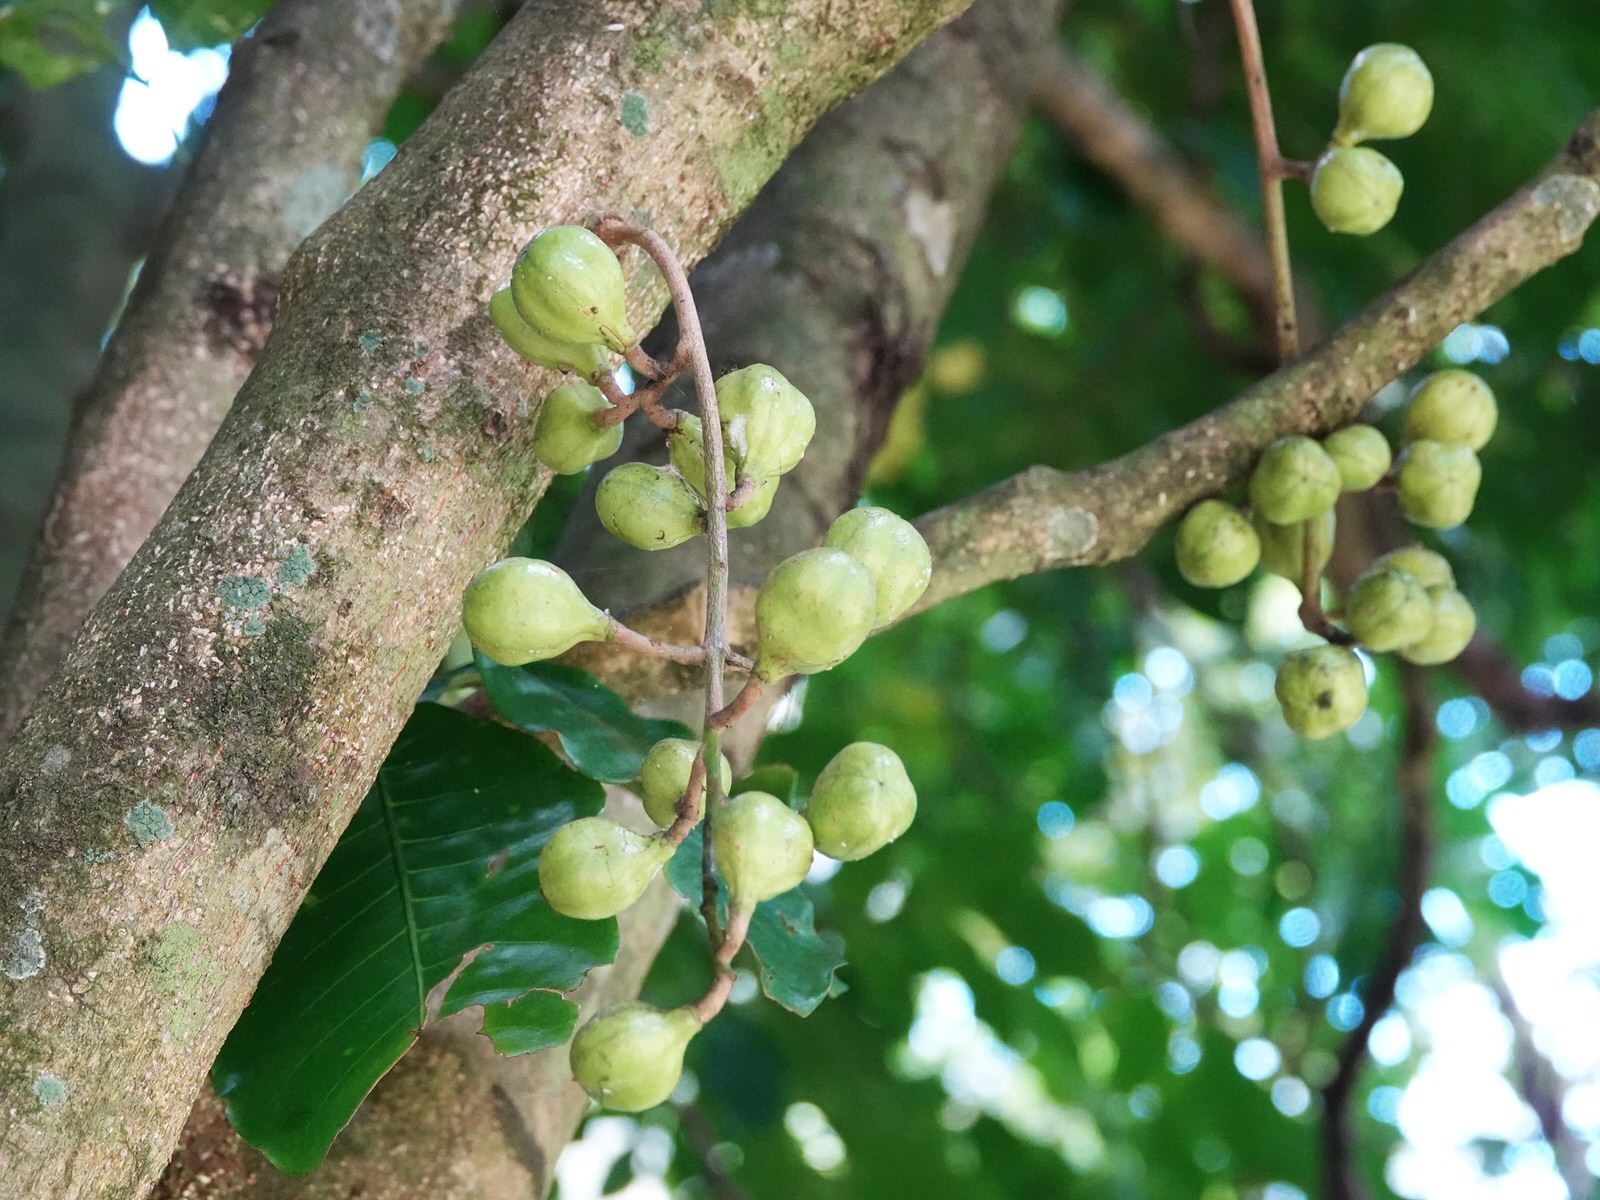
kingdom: Plantae
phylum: Tracheophyta
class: Magnoliopsida
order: Sapindales
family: Meliaceae
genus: Didymocheton
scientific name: Didymocheton spectabilis
